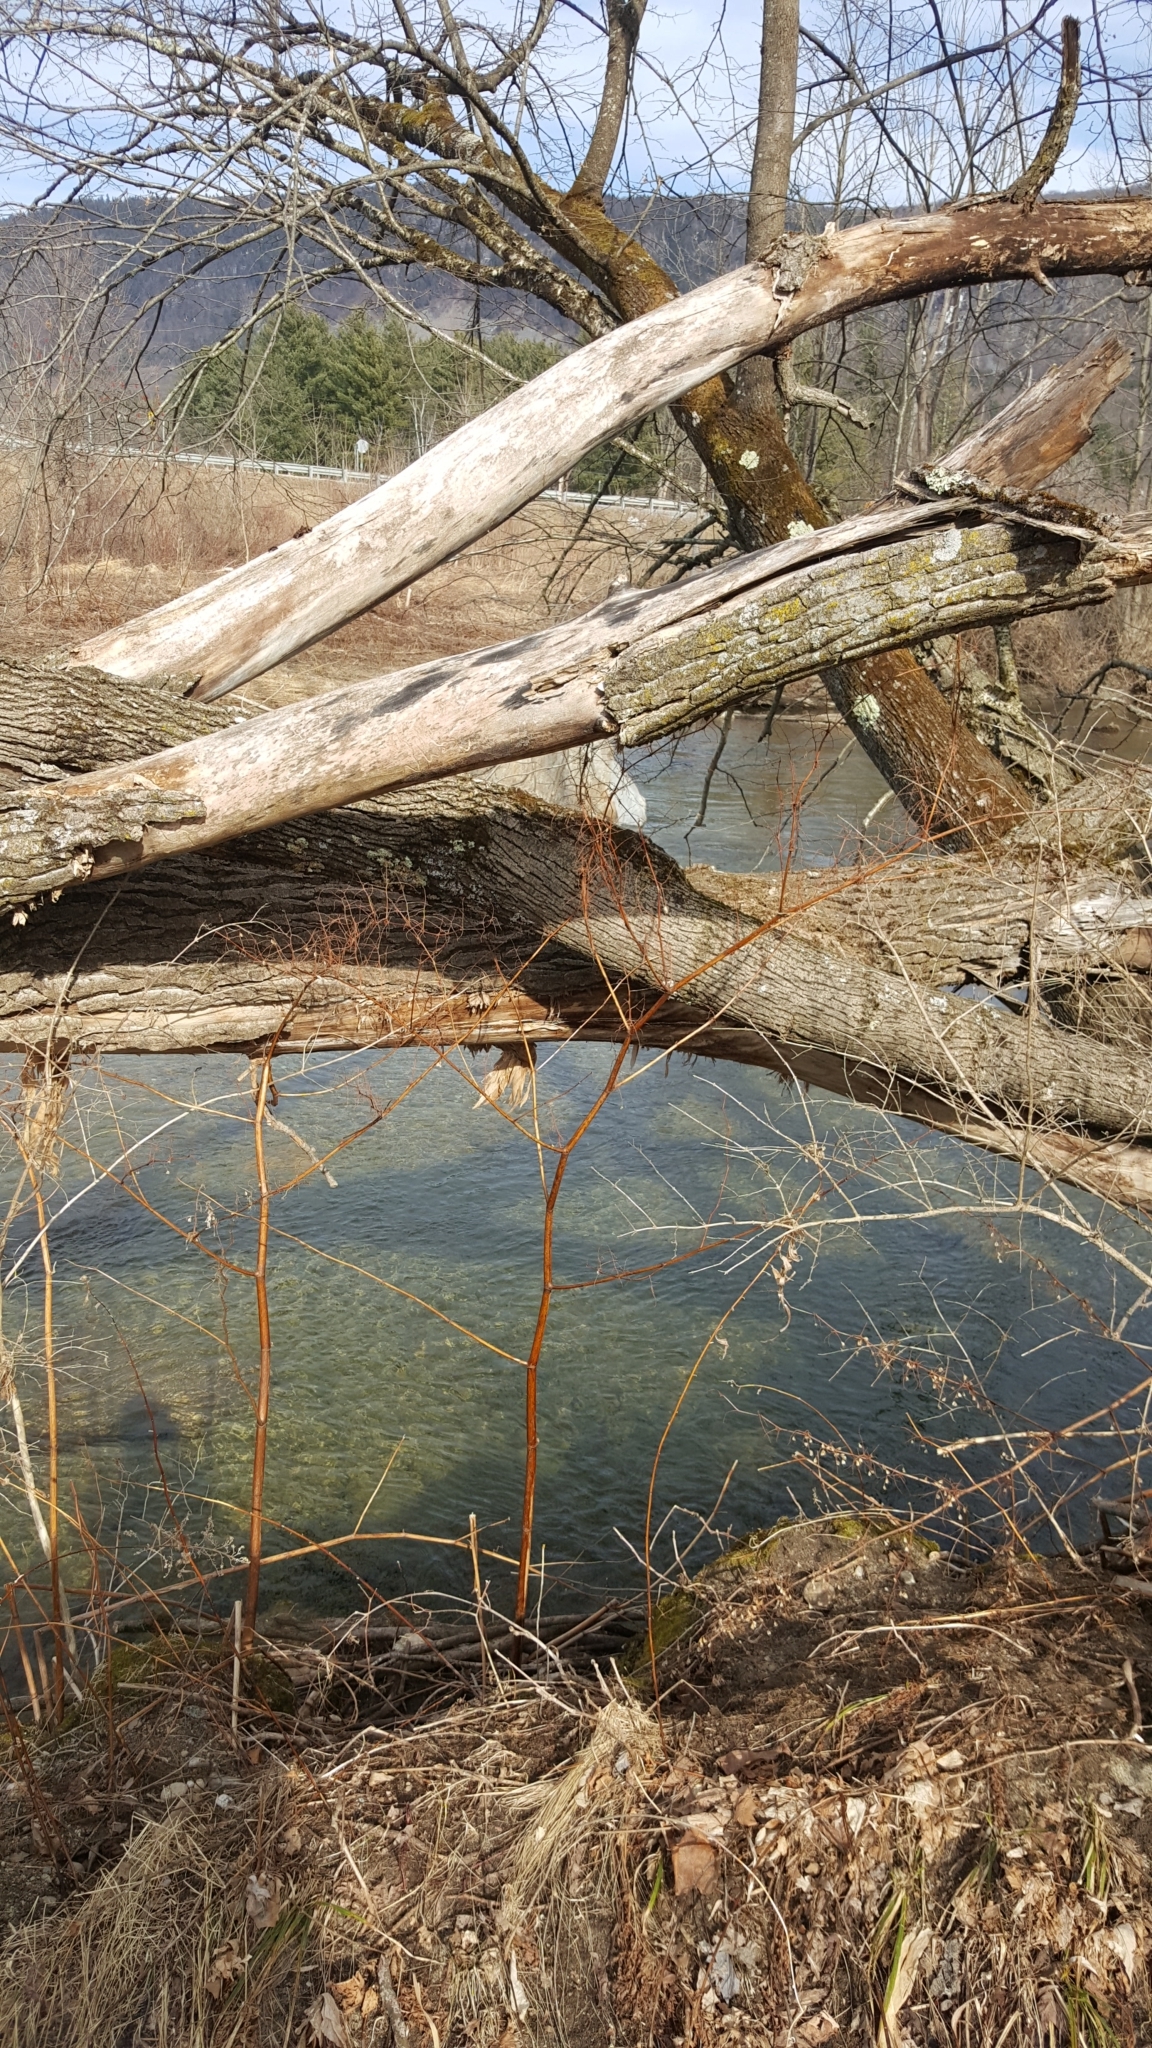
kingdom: Plantae
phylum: Tracheophyta
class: Magnoliopsida
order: Caryophyllales
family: Polygonaceae
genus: Reynoutria
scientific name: Reynoutria japonica
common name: Japanese knotweed
